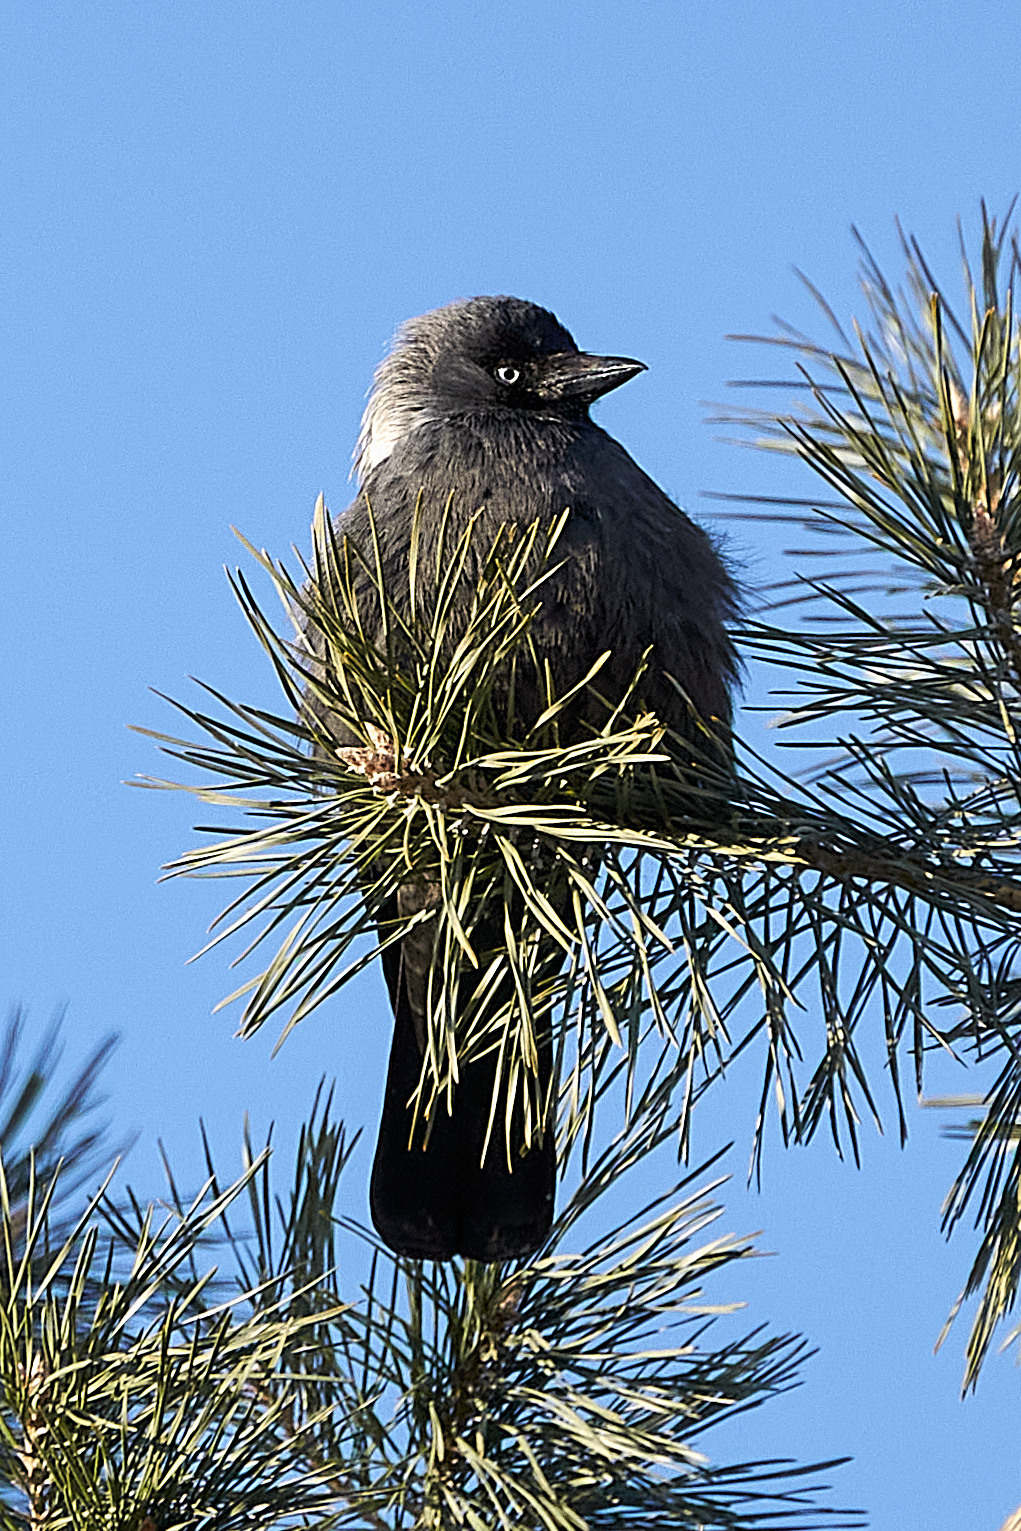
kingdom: Animalia
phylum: Chordata
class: Aves
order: Passeriformes
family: Corvidae
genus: Coloeus
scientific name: Coloeus monedula
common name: Western jackdaw
